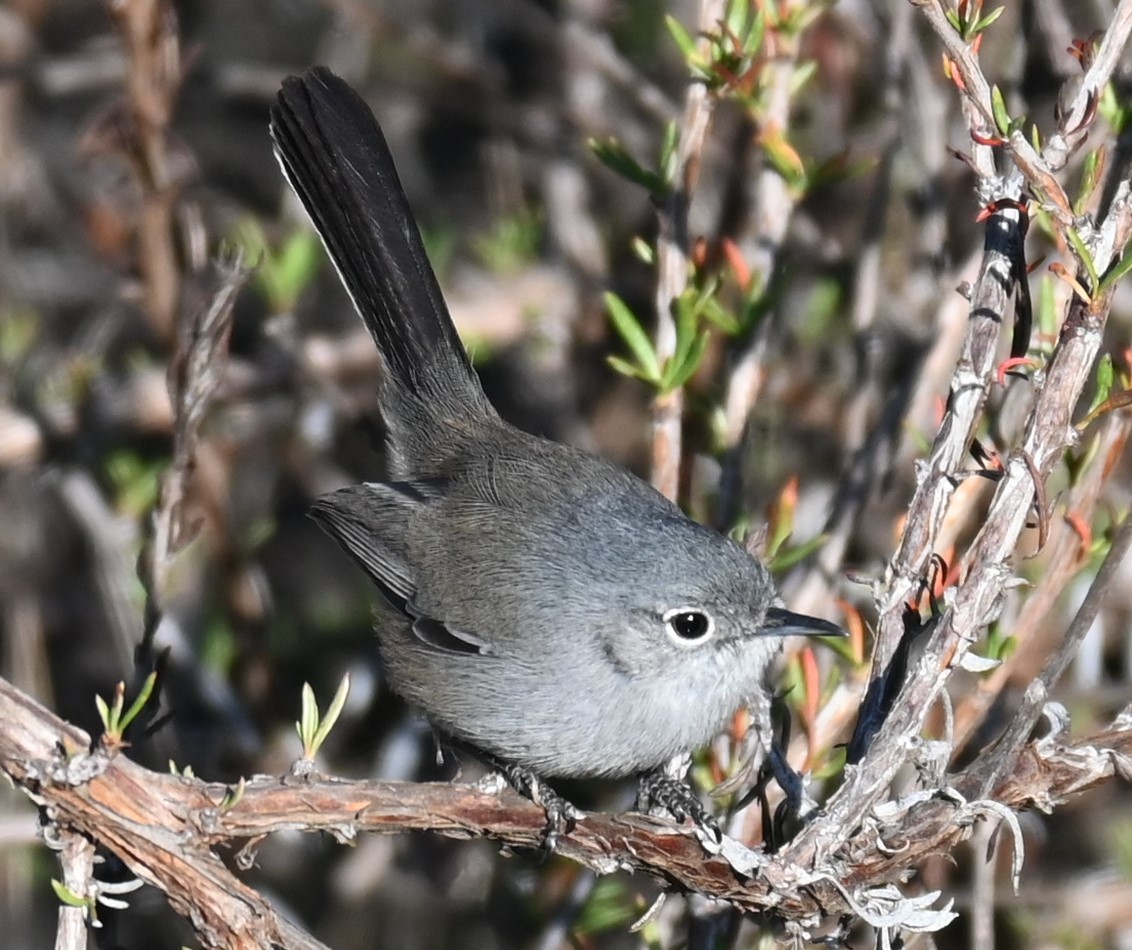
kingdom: Animalia
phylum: Chordata
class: Aves
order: Passeriformes
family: Polioptilidae
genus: Polioptila
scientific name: Polioptila californica
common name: California gnatcatcher
